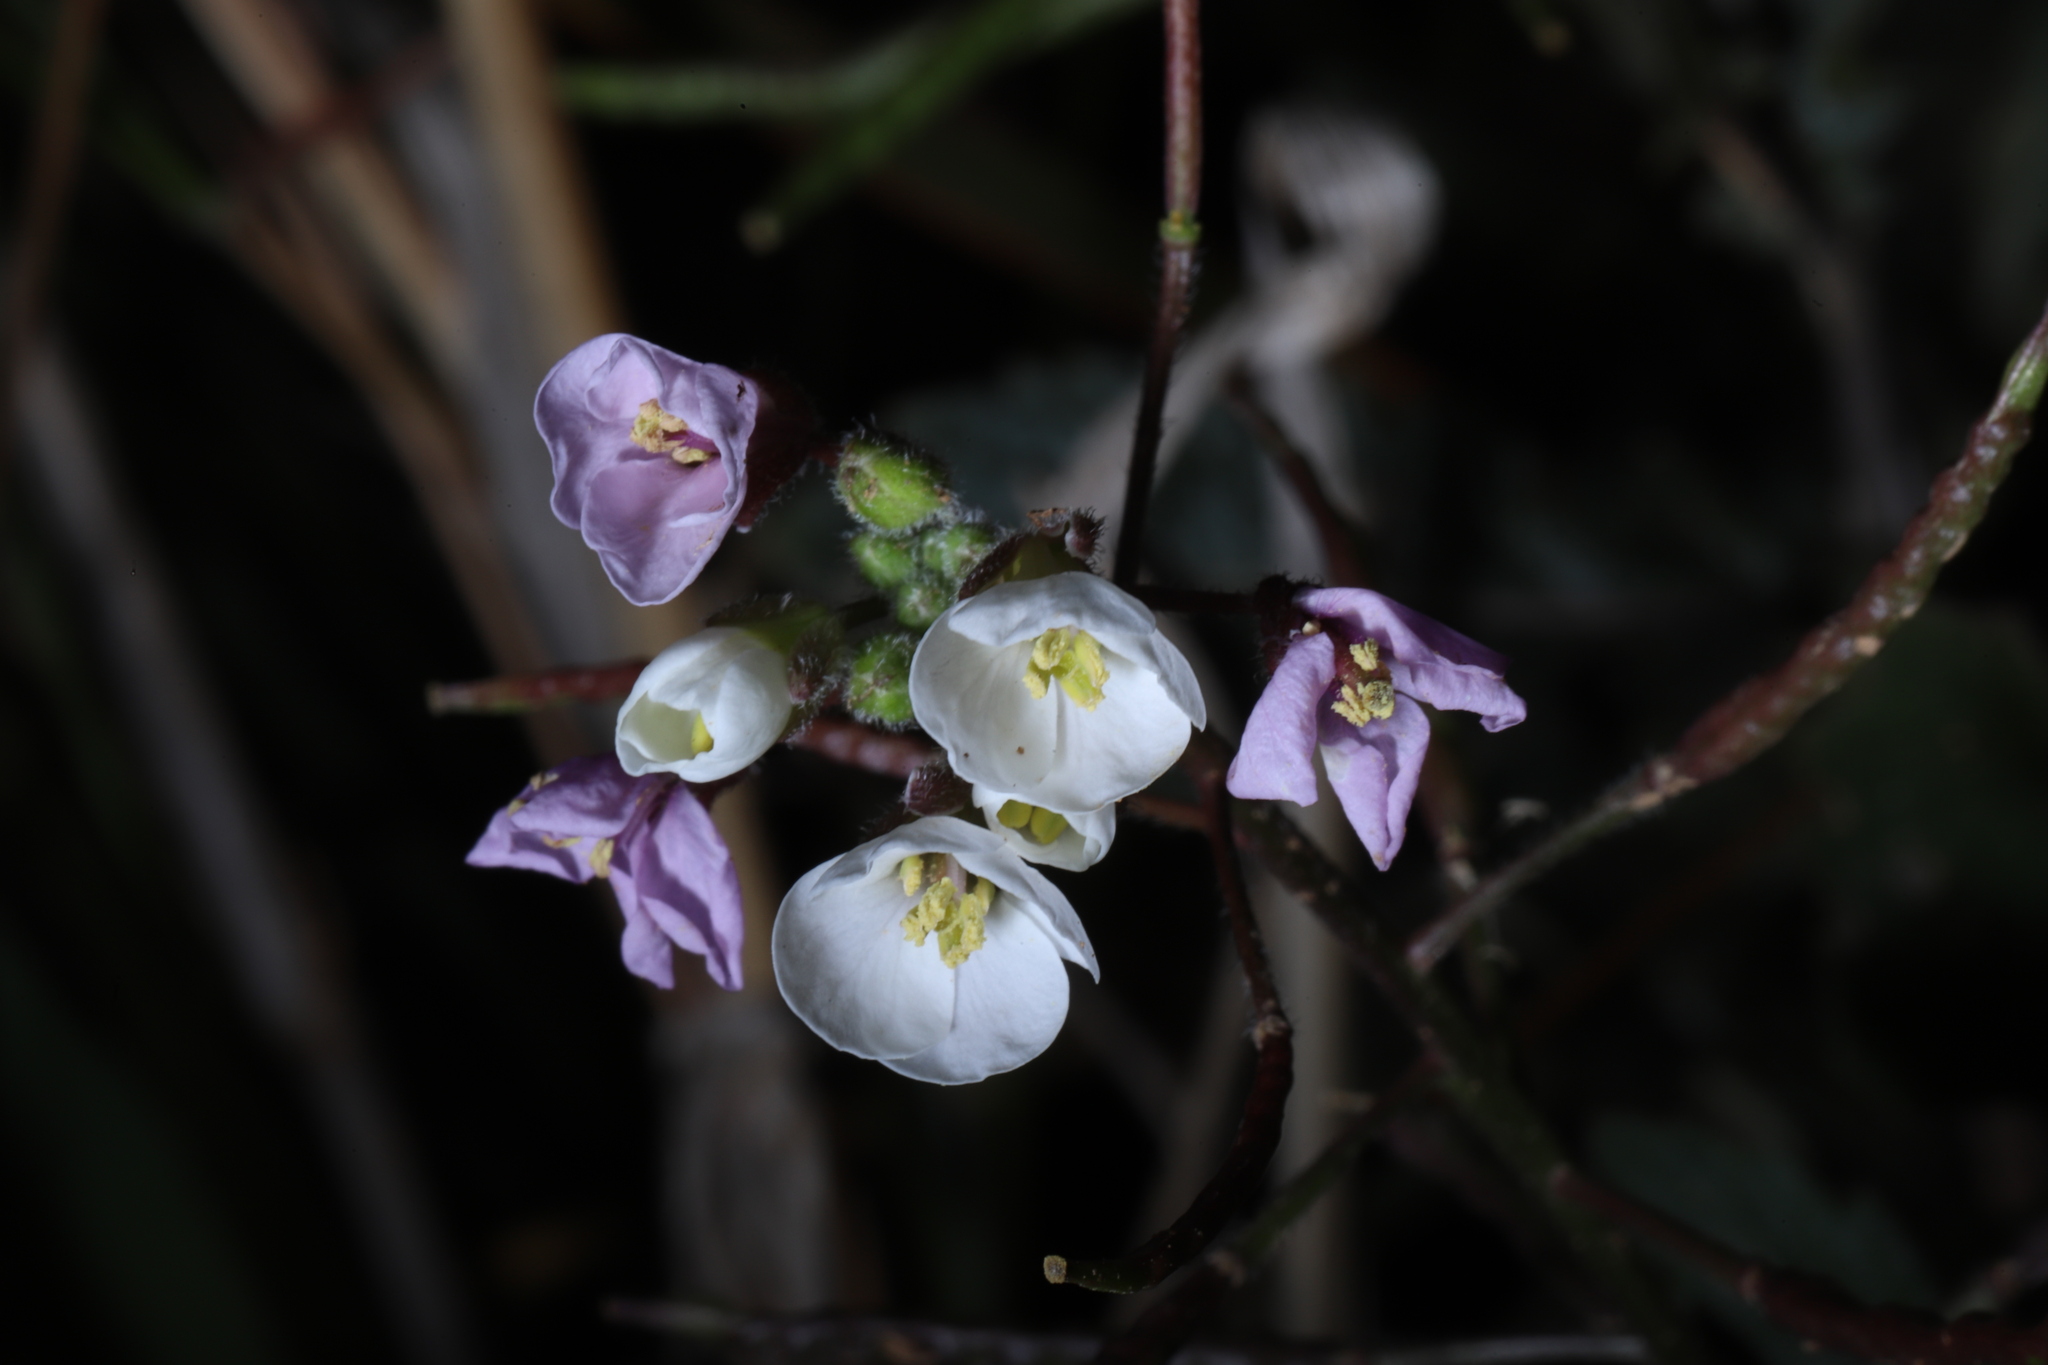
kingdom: Plantae
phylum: Tracheophyta
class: Magnoliopsida
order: Brassicales
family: Brassicaceae
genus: Diplotaxis
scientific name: Diplotaxis erucoides
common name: White rocket
